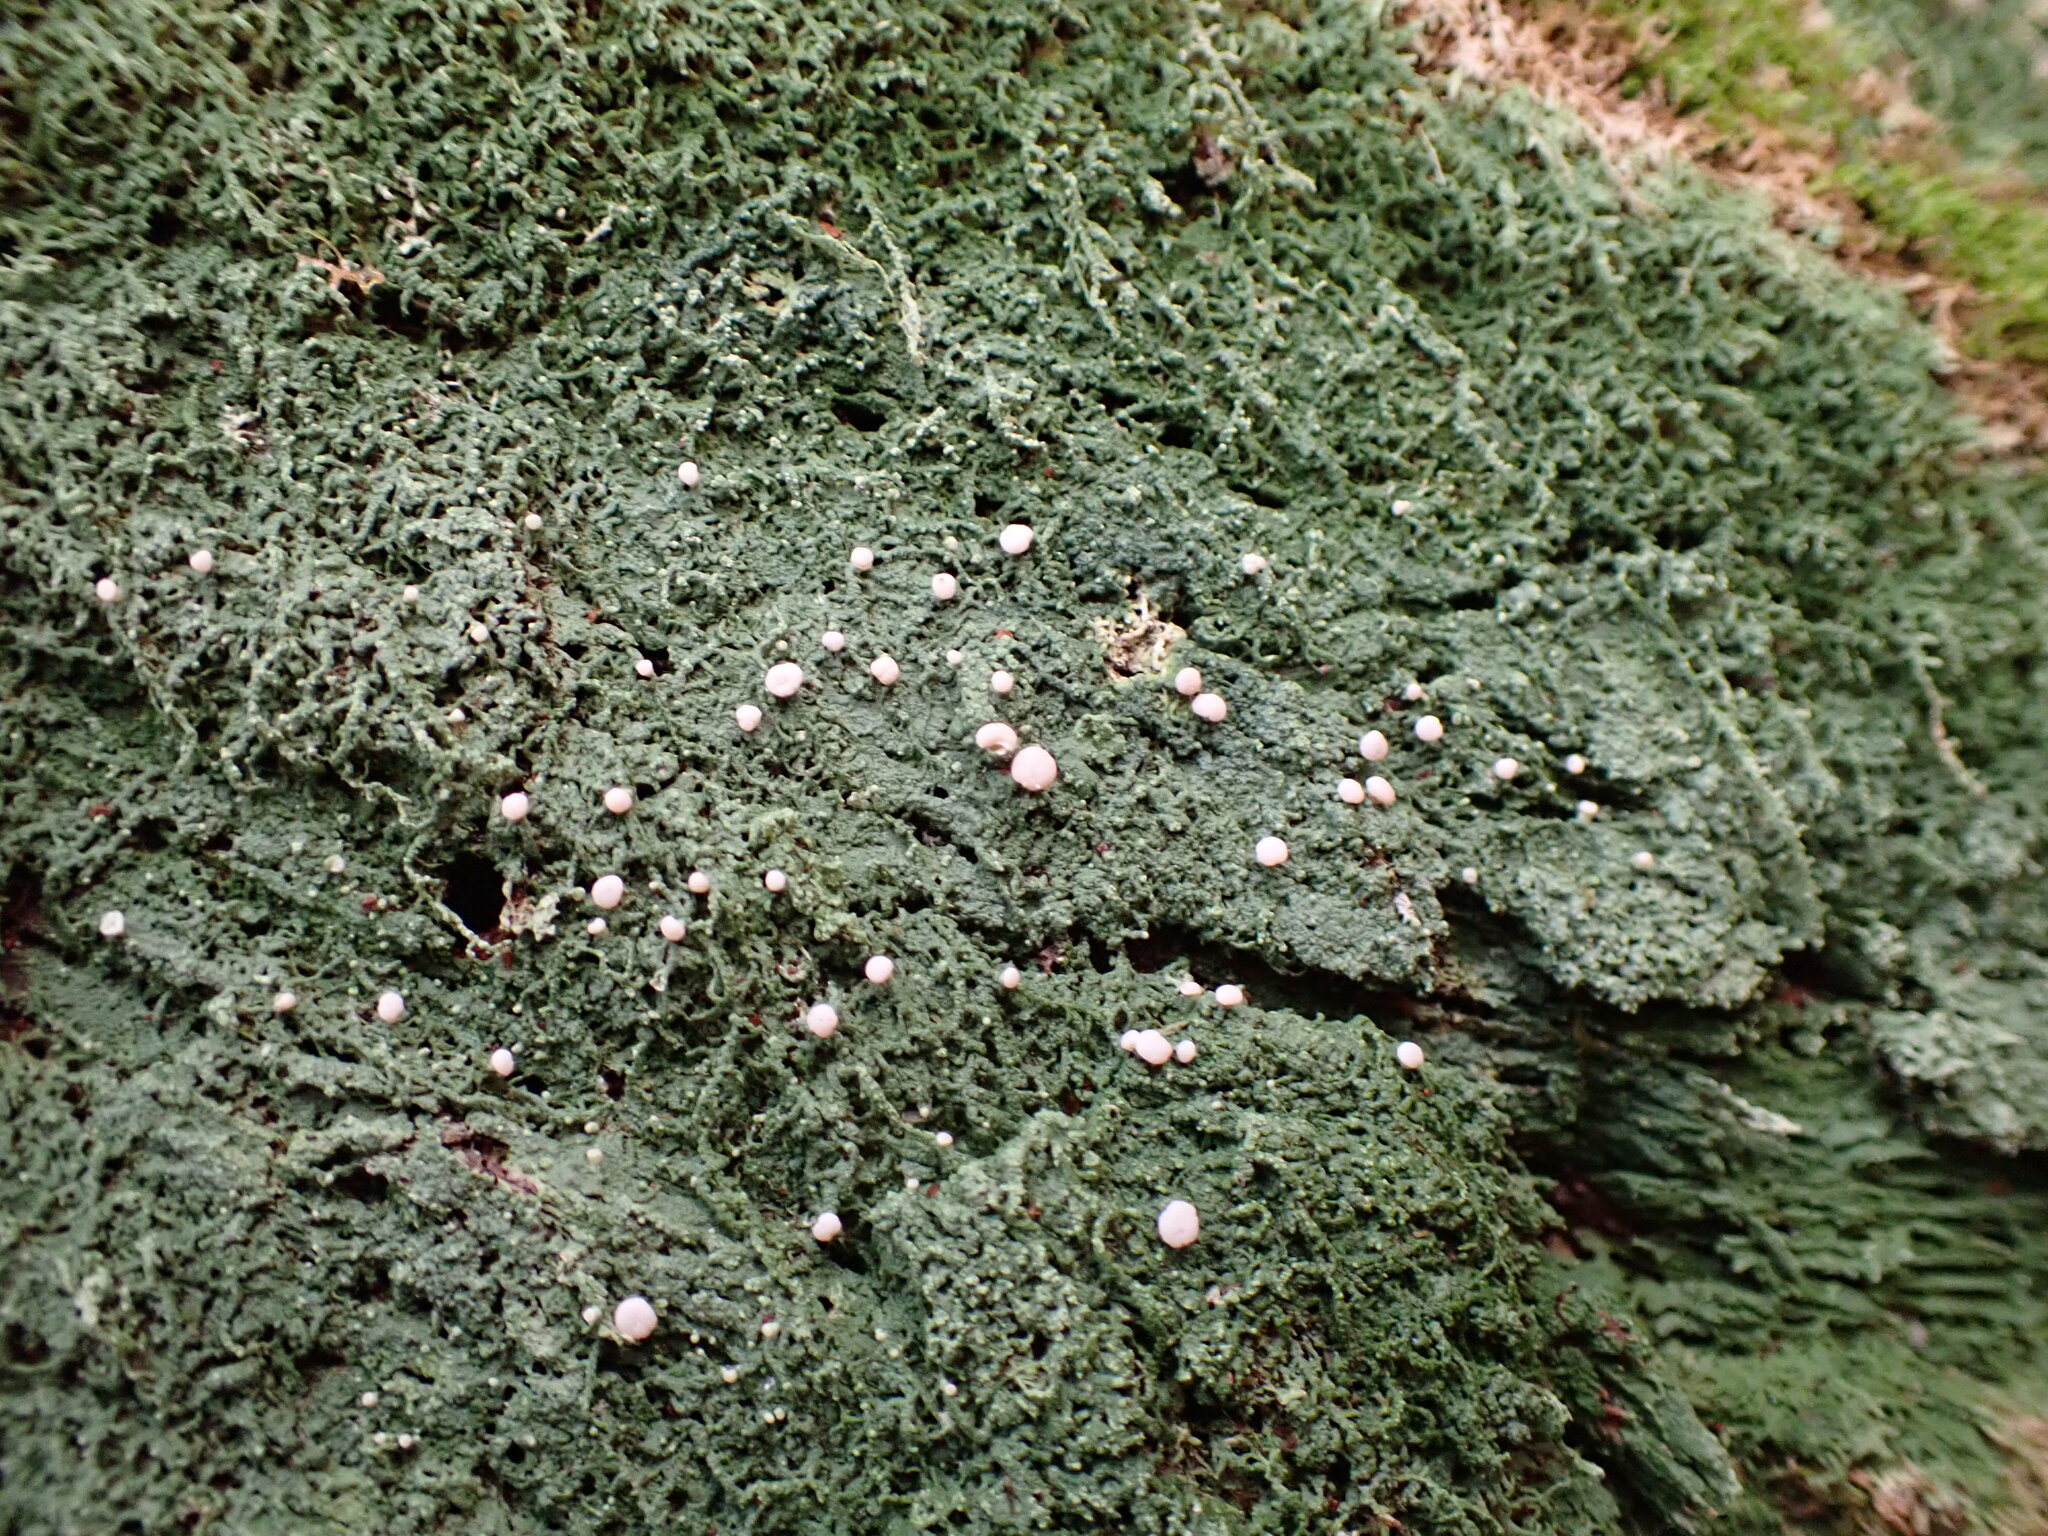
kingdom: Fungi
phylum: Ascomycota
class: Lecanoromycetes
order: Pertusariales
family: Icmadophilaceae
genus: Icmadophila
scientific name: Icmadophila ericetorum
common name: Candy lichen
